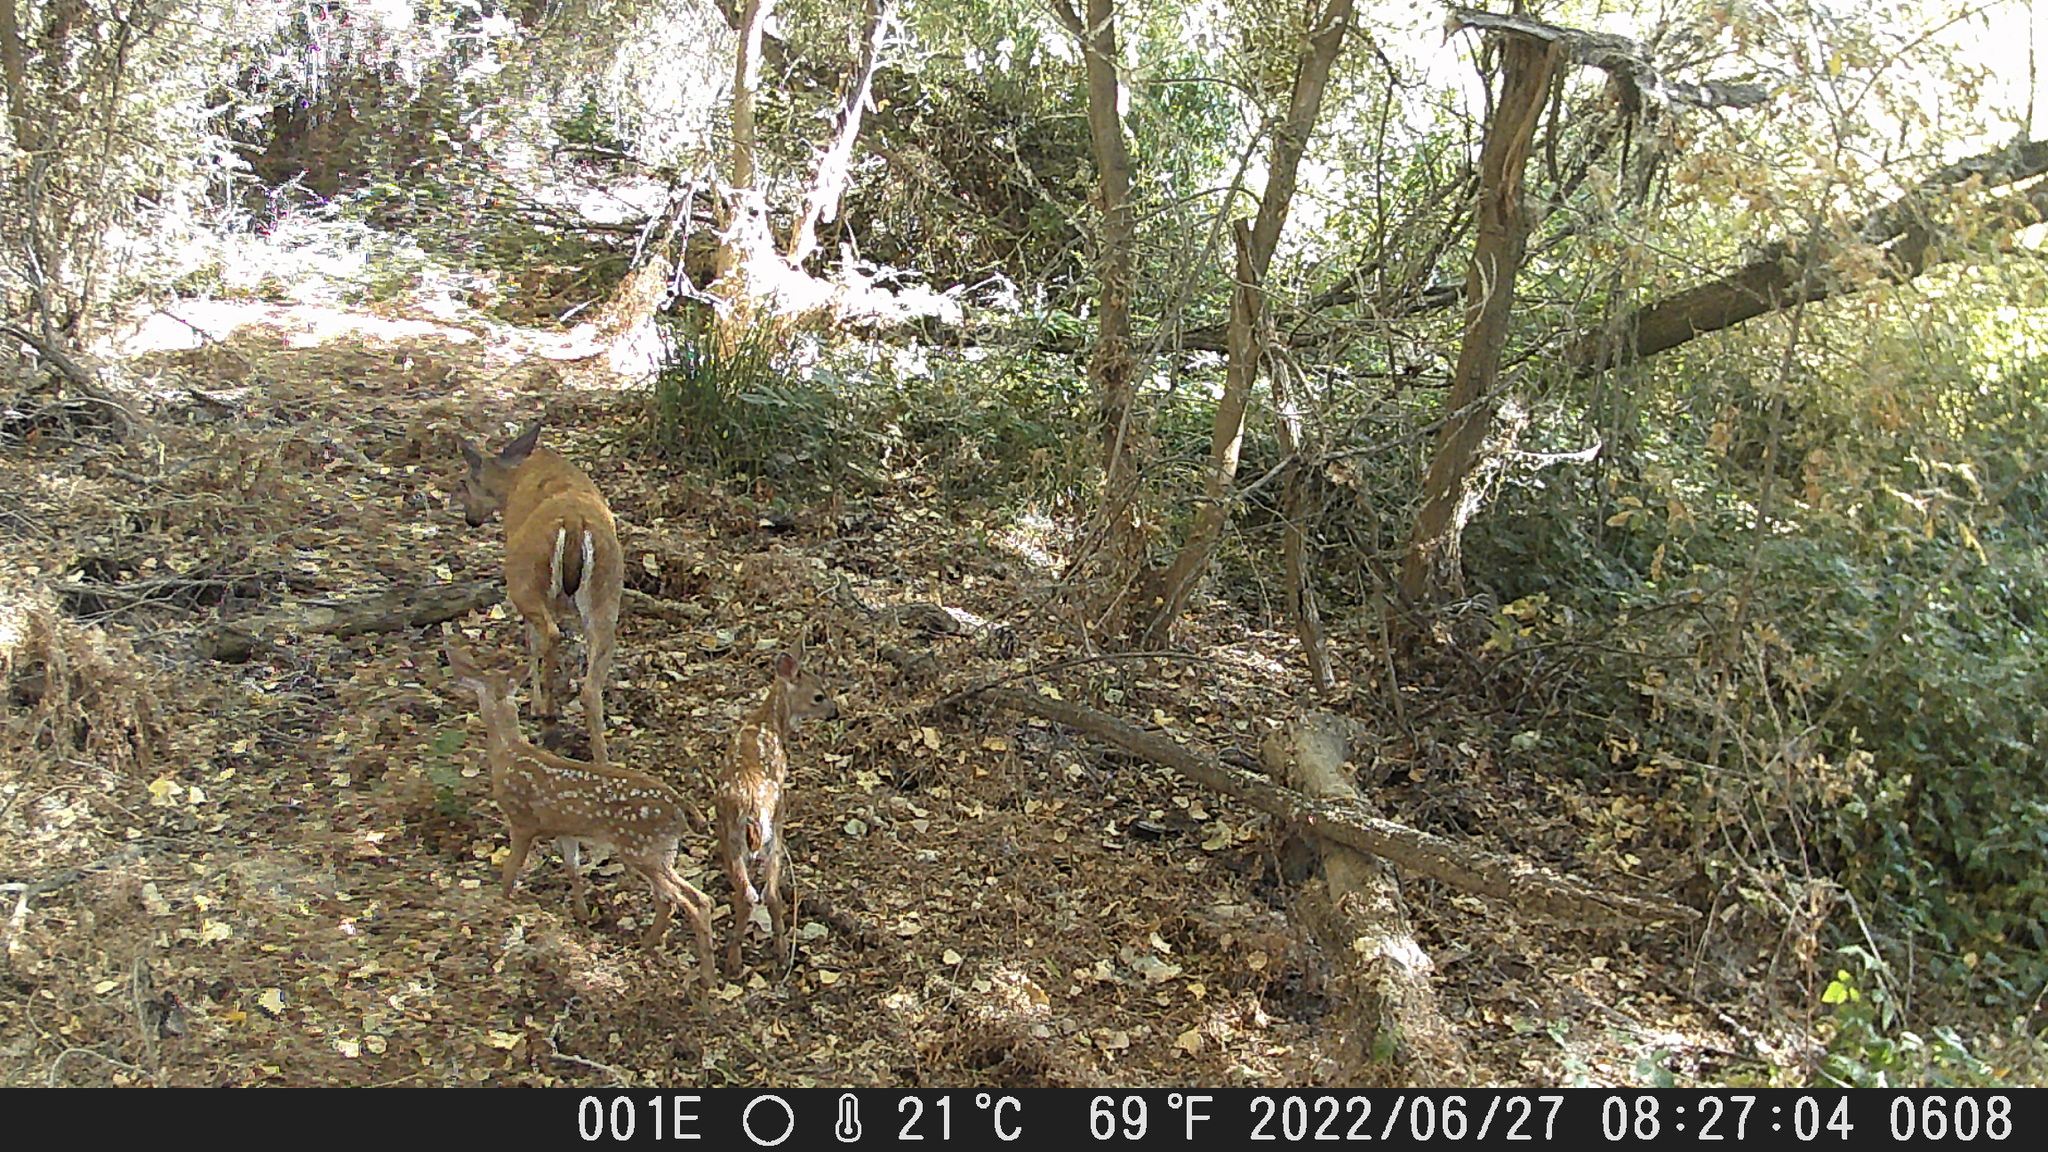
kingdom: Animalia
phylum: Chordata
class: Mammalia
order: Artiodactyla
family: Cervidae
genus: Odocoileus
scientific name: Odocoileus hemionus
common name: Mule deer
